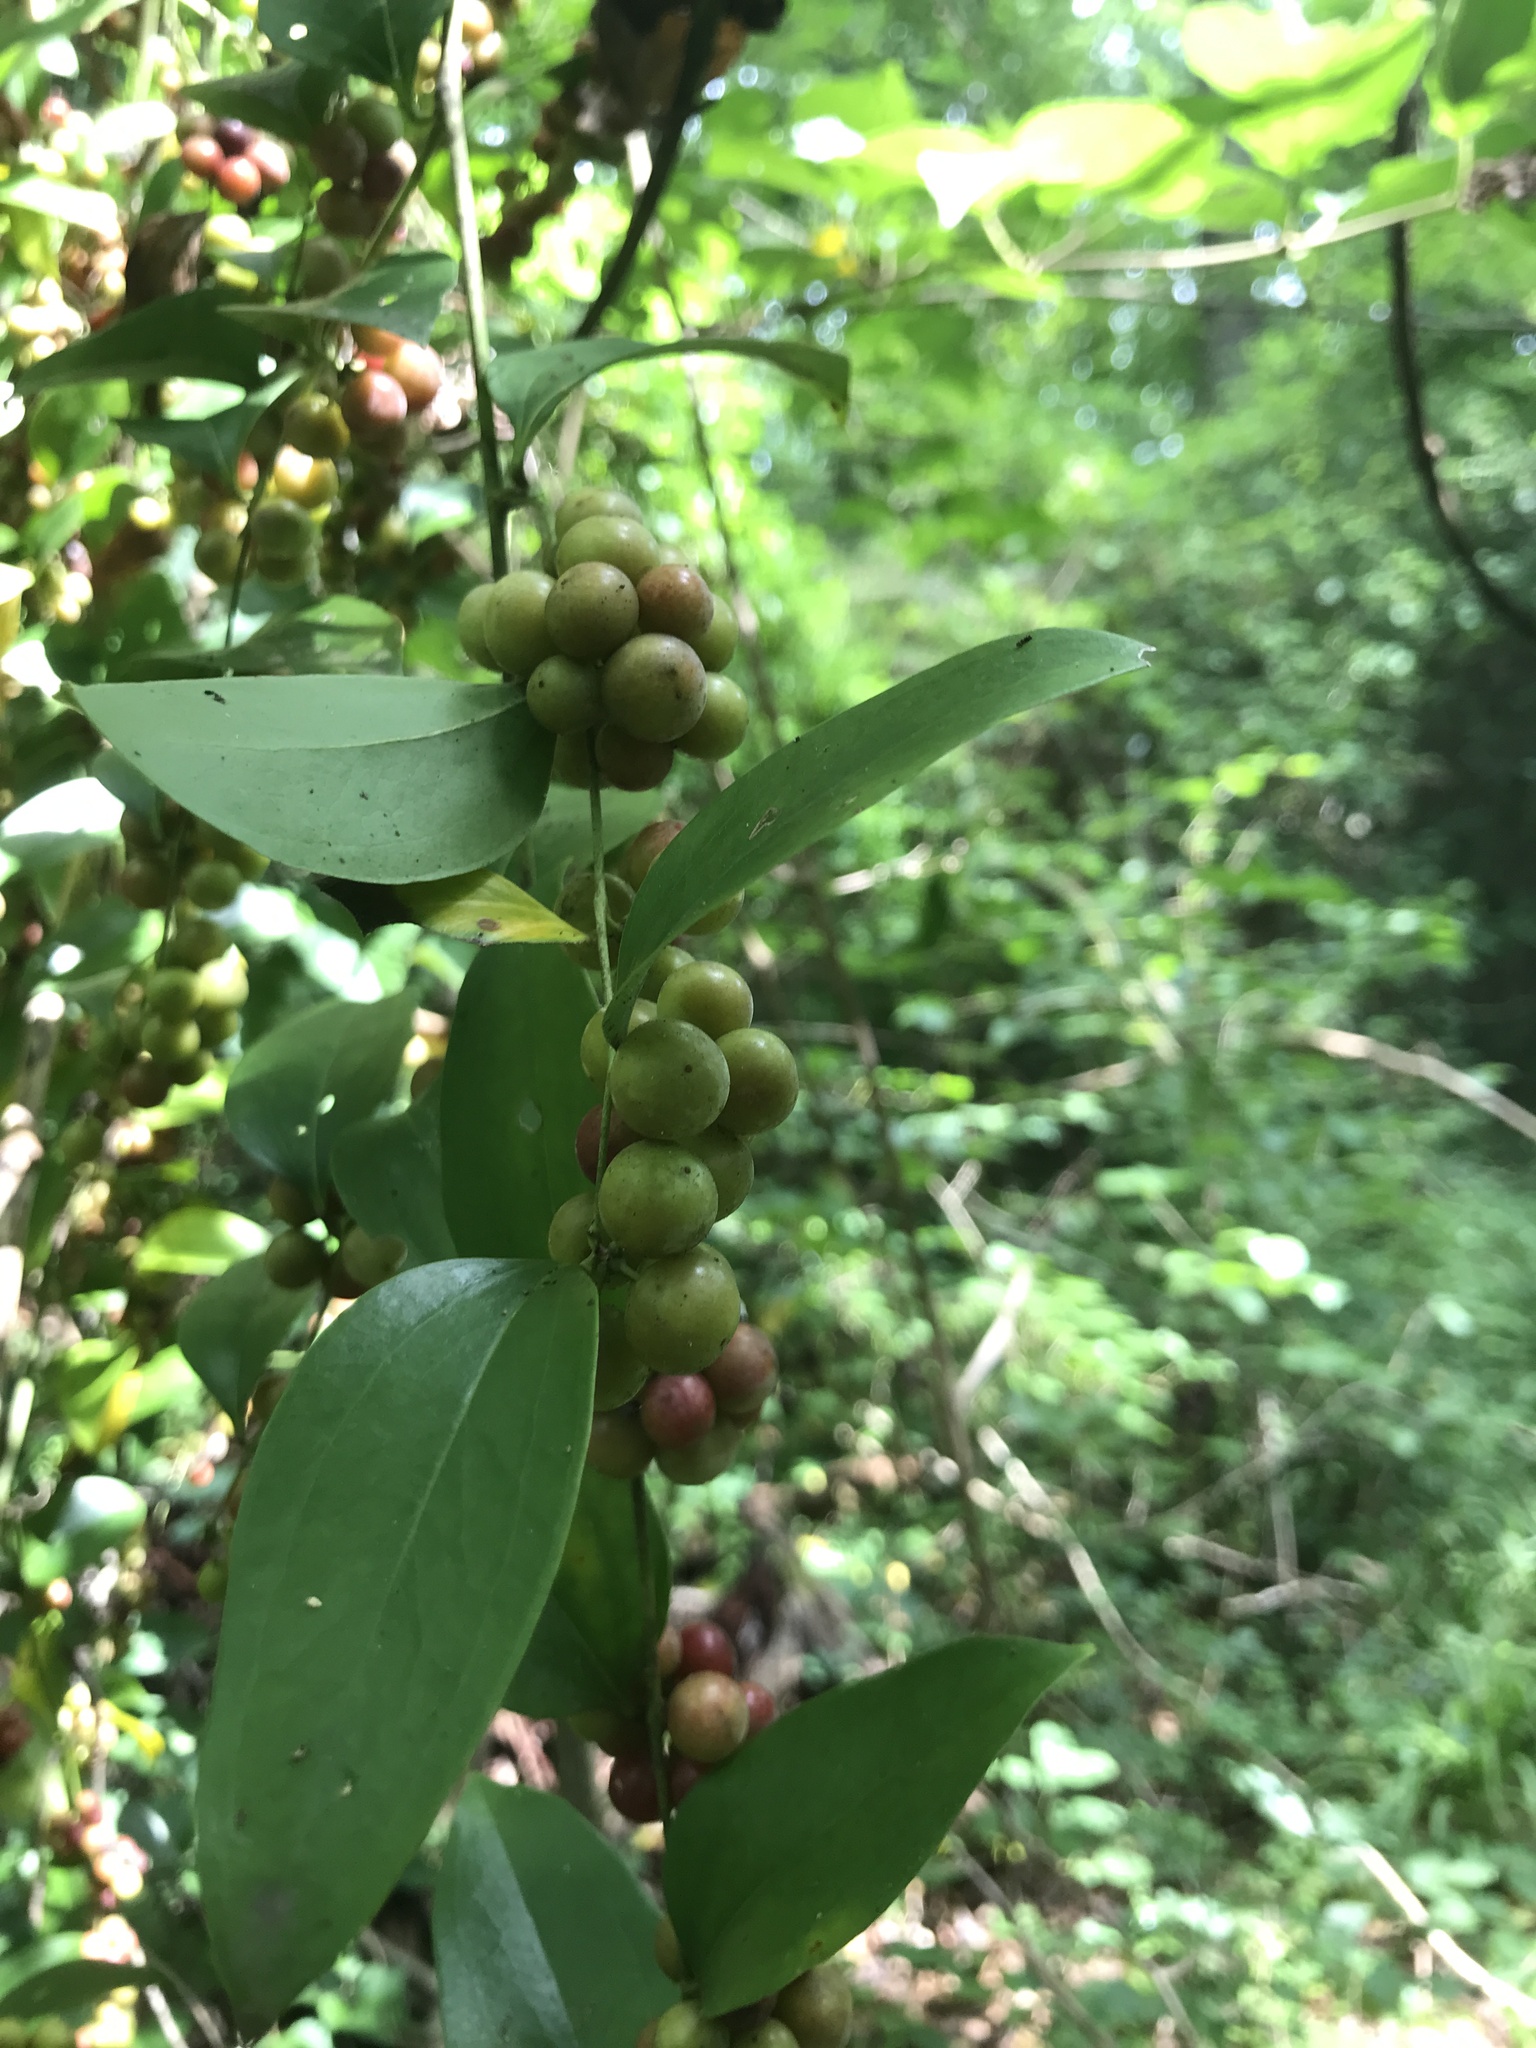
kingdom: Plantae
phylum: Tracheophyta
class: Liliopsida
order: Liliales
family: Smilacaceae
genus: Smilax
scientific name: Smilax maritima
